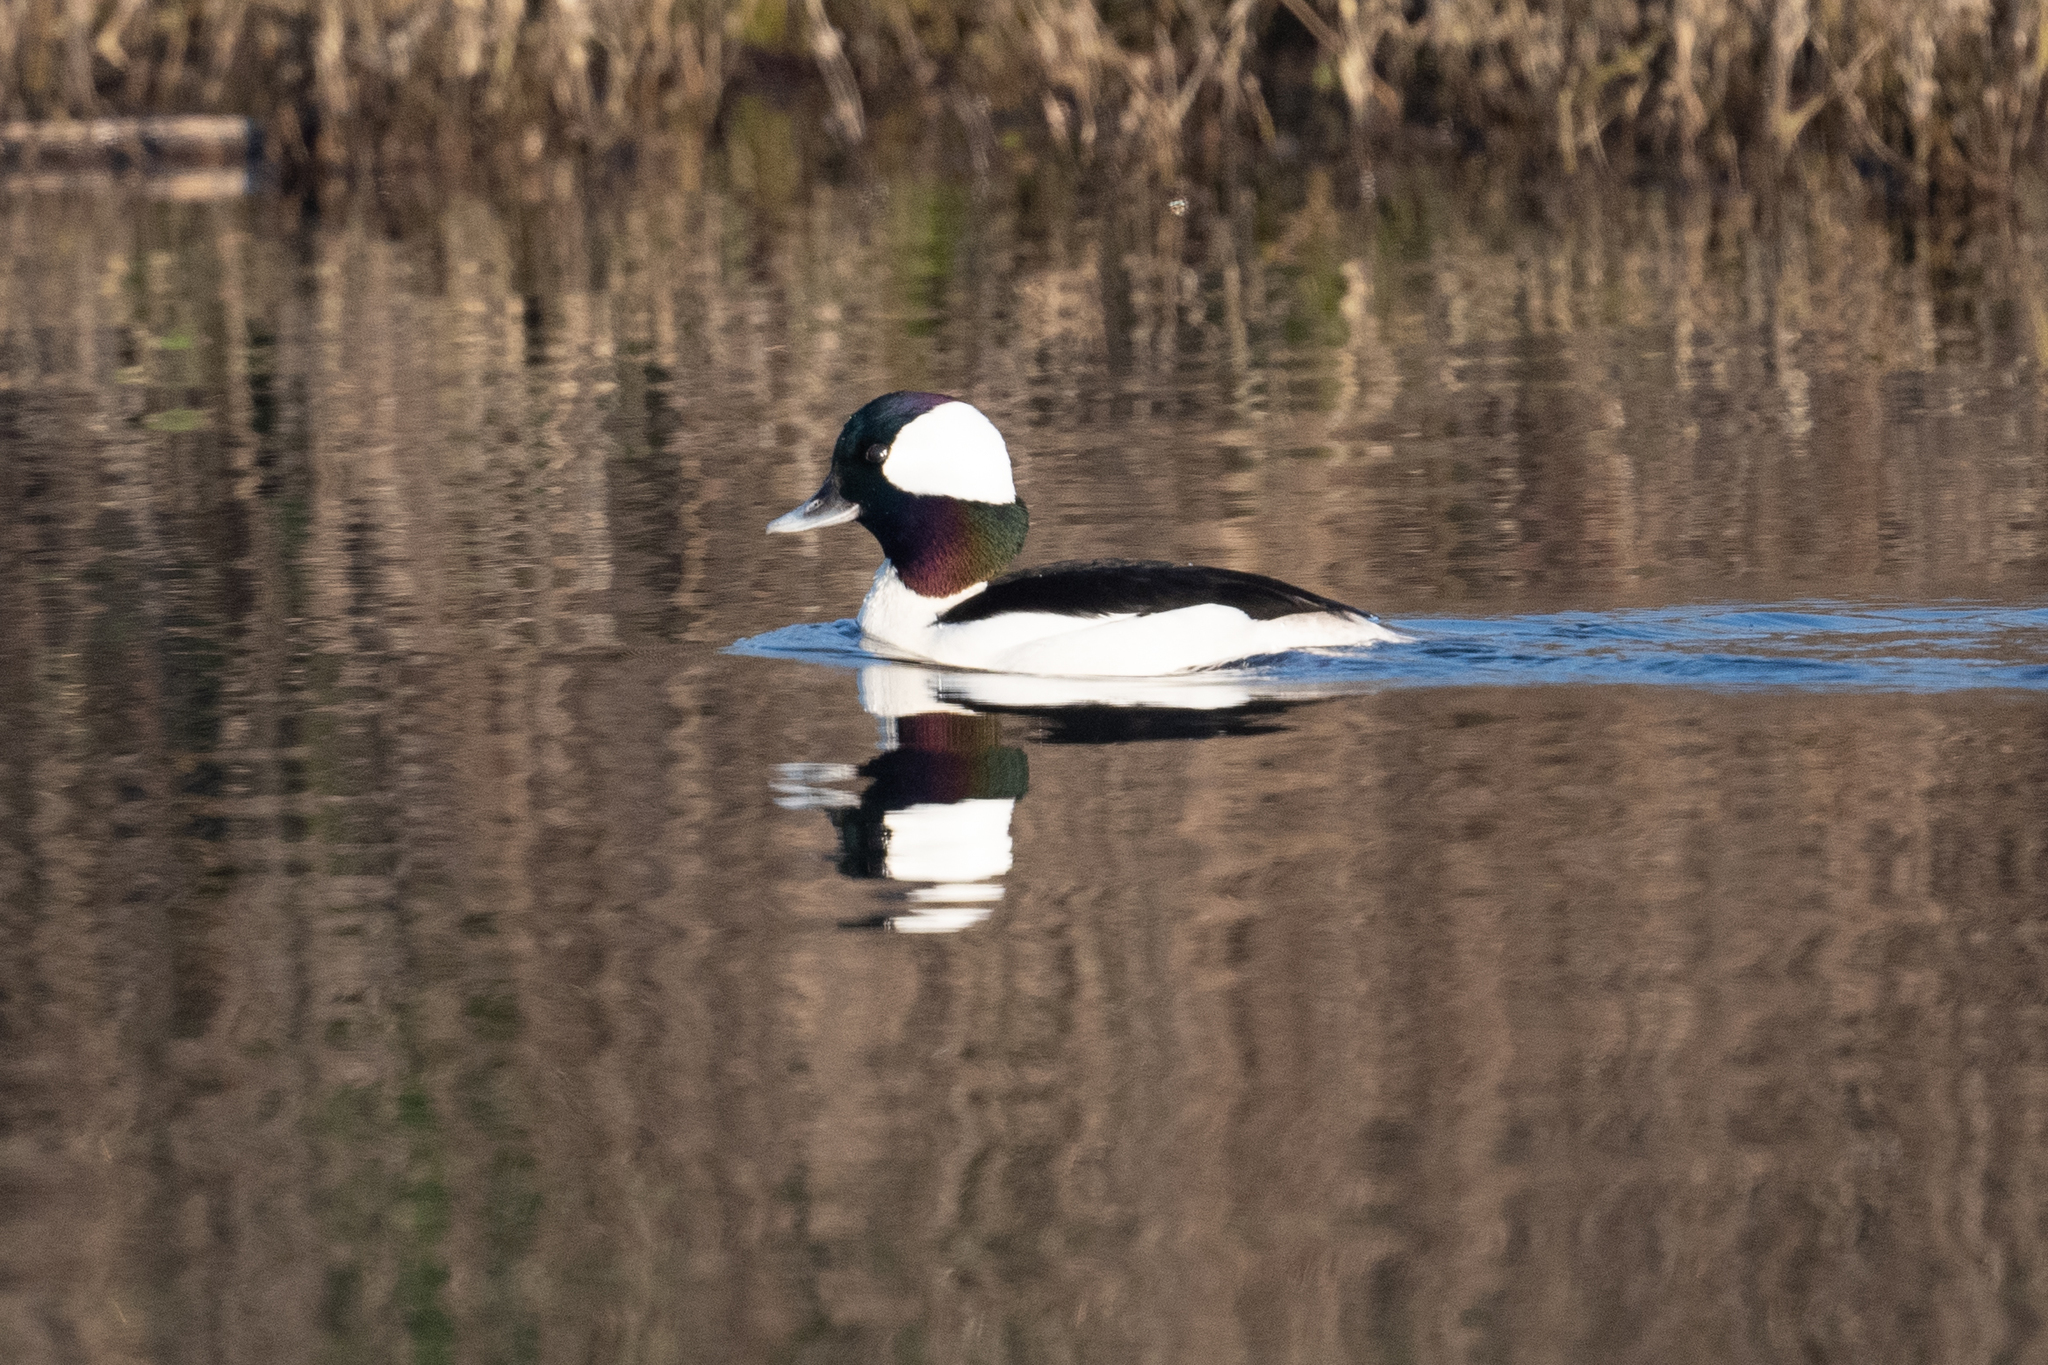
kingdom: Animalia
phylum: Chordata
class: Aves
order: Anseriformes
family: Anatidae
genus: Bucephala
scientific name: Bucephala albeola
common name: Bufflehead
